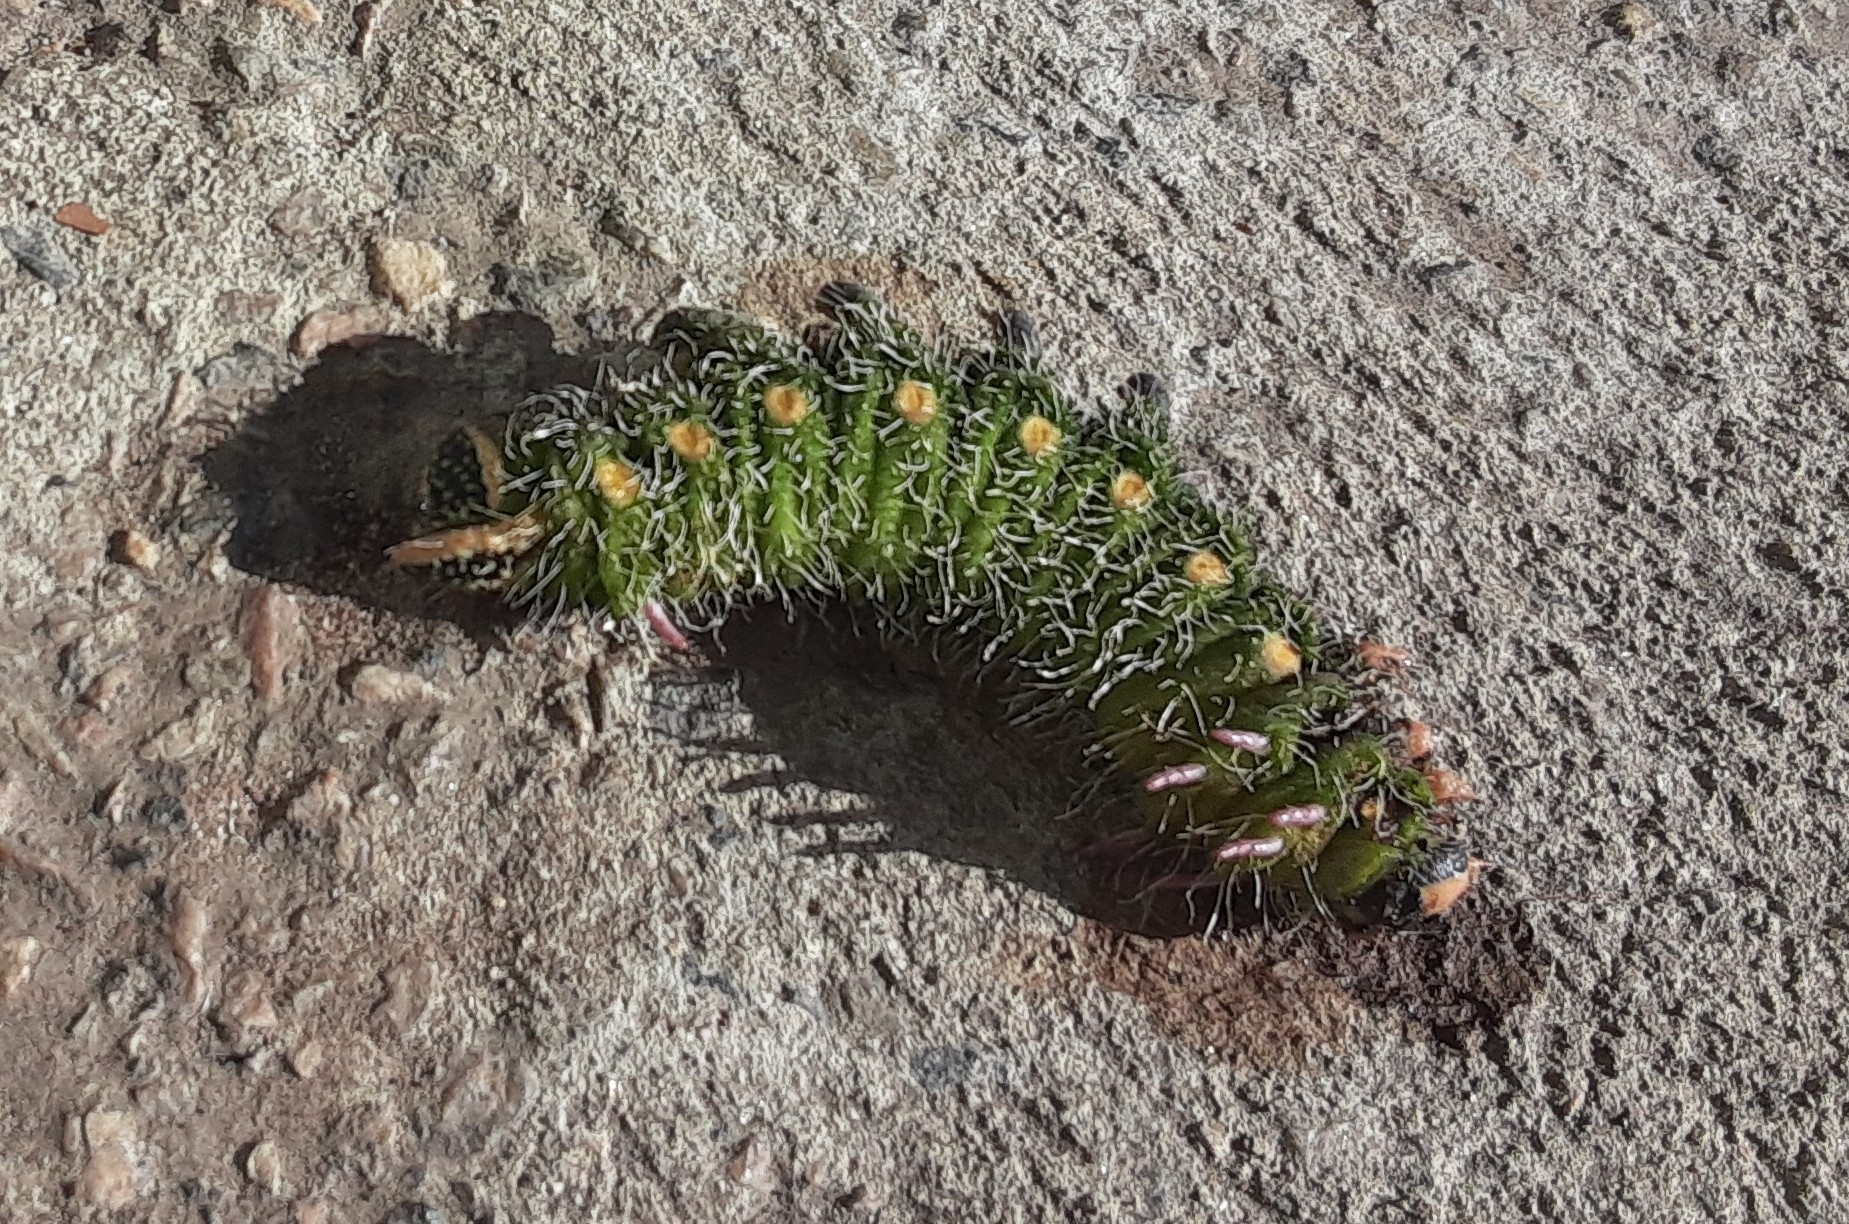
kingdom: Animalia
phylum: Arthropoda
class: Insecta
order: Lepidoptera
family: Saturniidae
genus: Eacles
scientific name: Eacles imperialis
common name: Imperial moth
